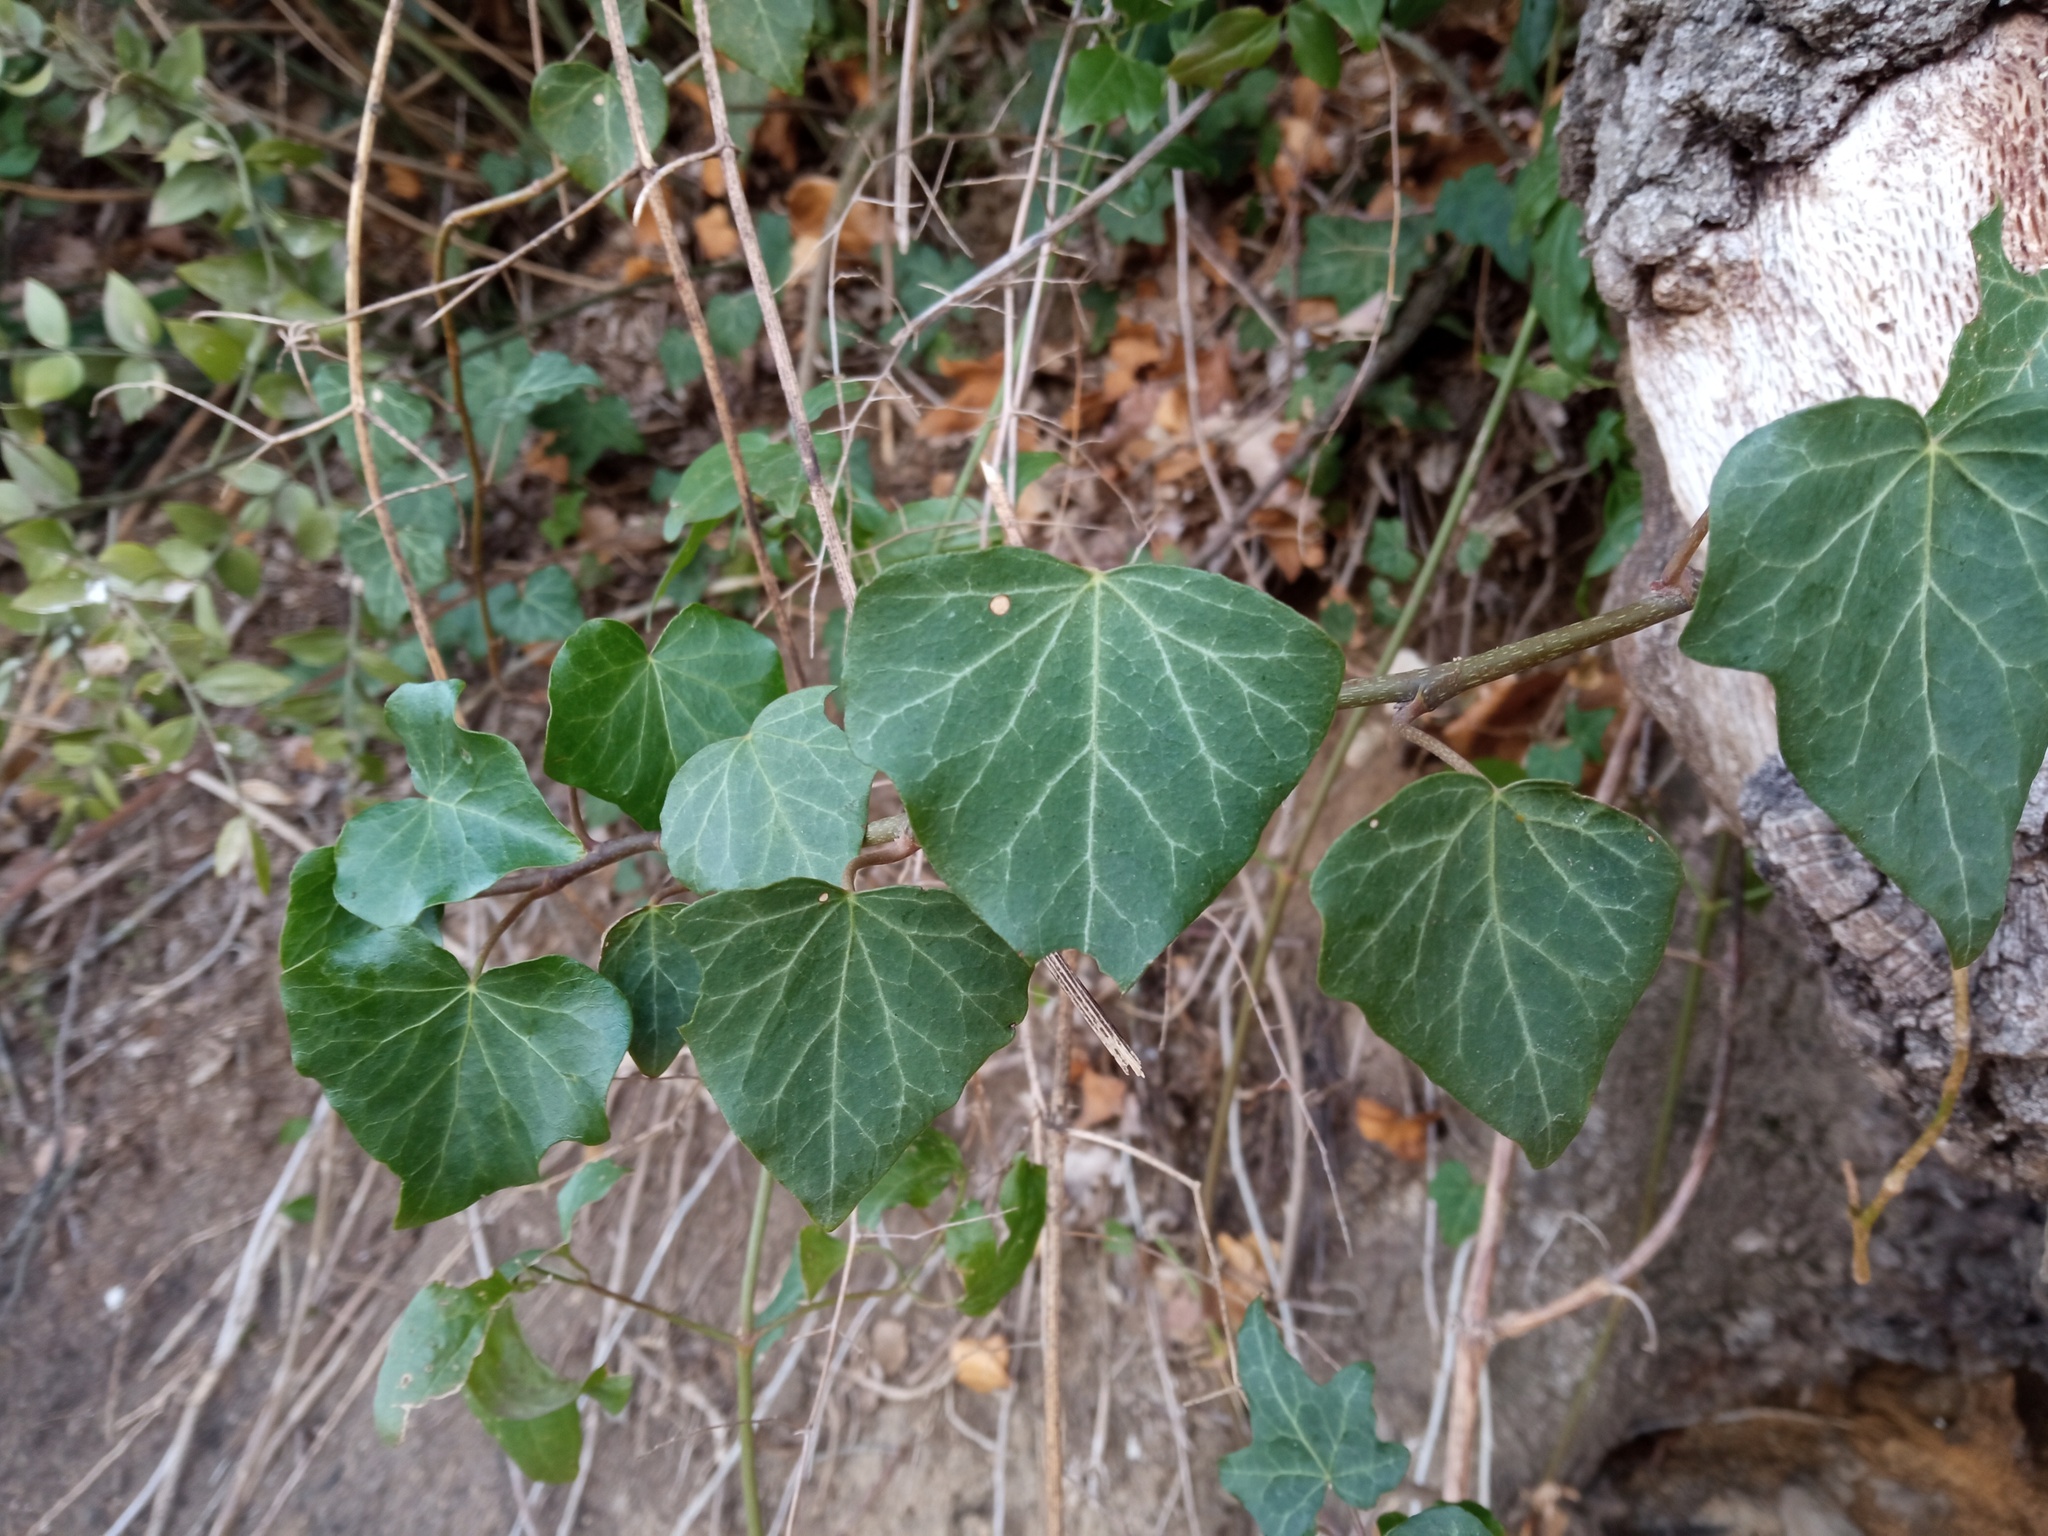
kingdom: Plantae
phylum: Tracheophyta
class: Magnoliopsida
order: Apiales
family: Araliaceae
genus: Hedera
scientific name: Hedera helix
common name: Ivy
